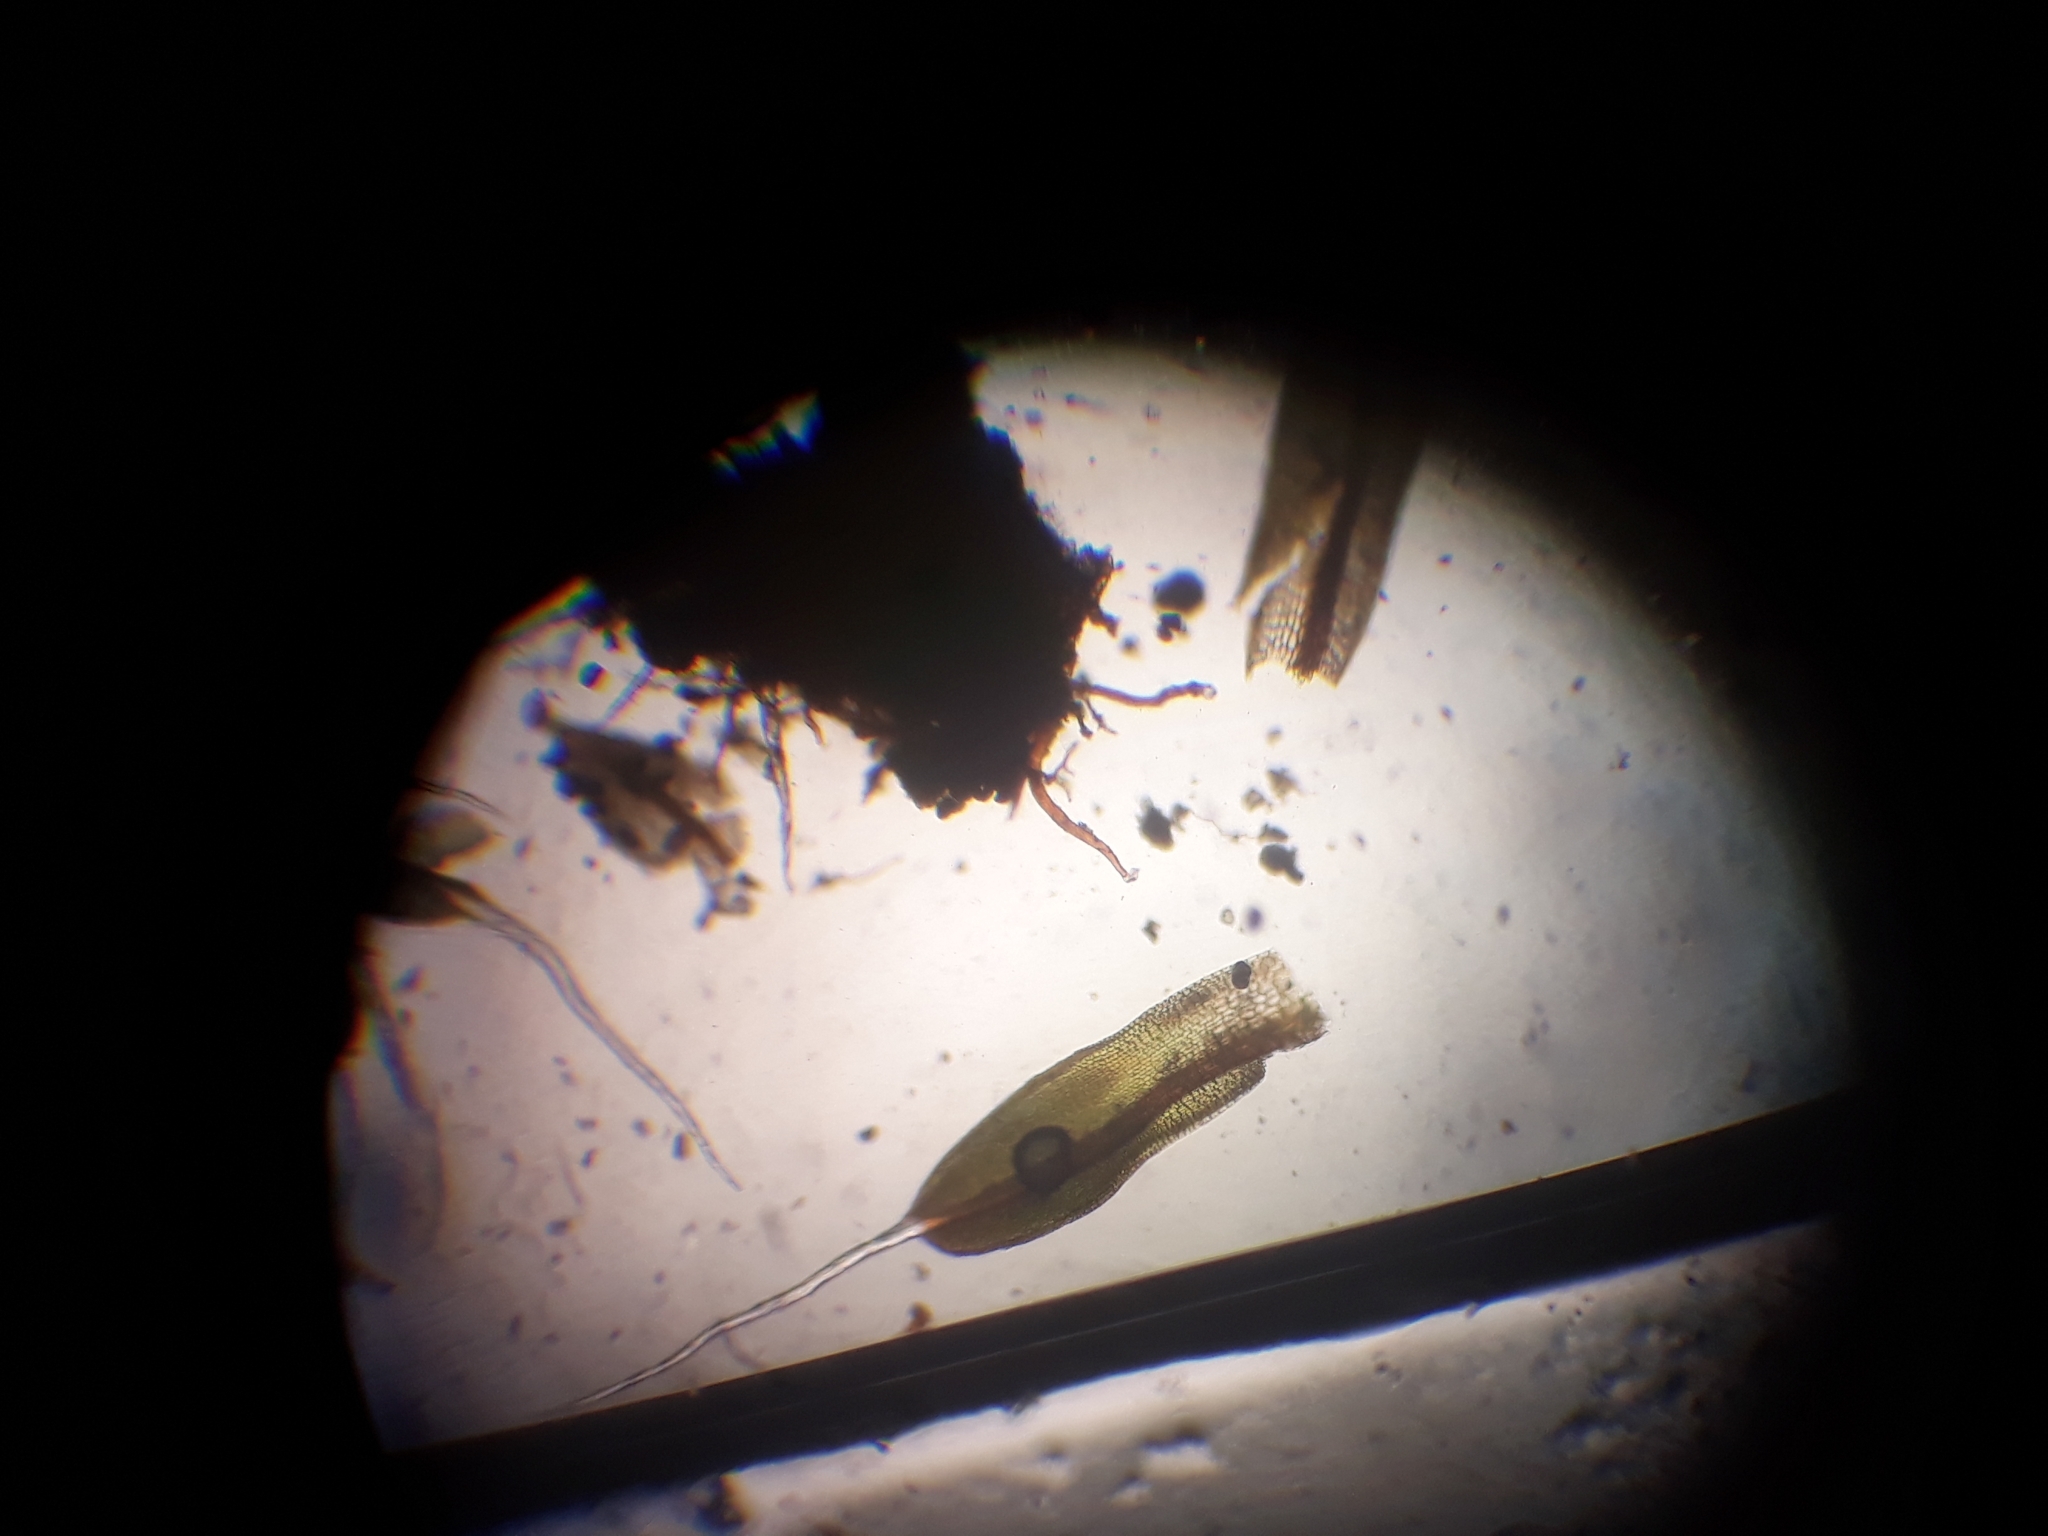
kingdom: Plantae
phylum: Bryophyta
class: Bryopsida
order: Pottiales
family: Pottiaceae
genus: Tortula
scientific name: Tortula muralis
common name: Wall screw-moss
